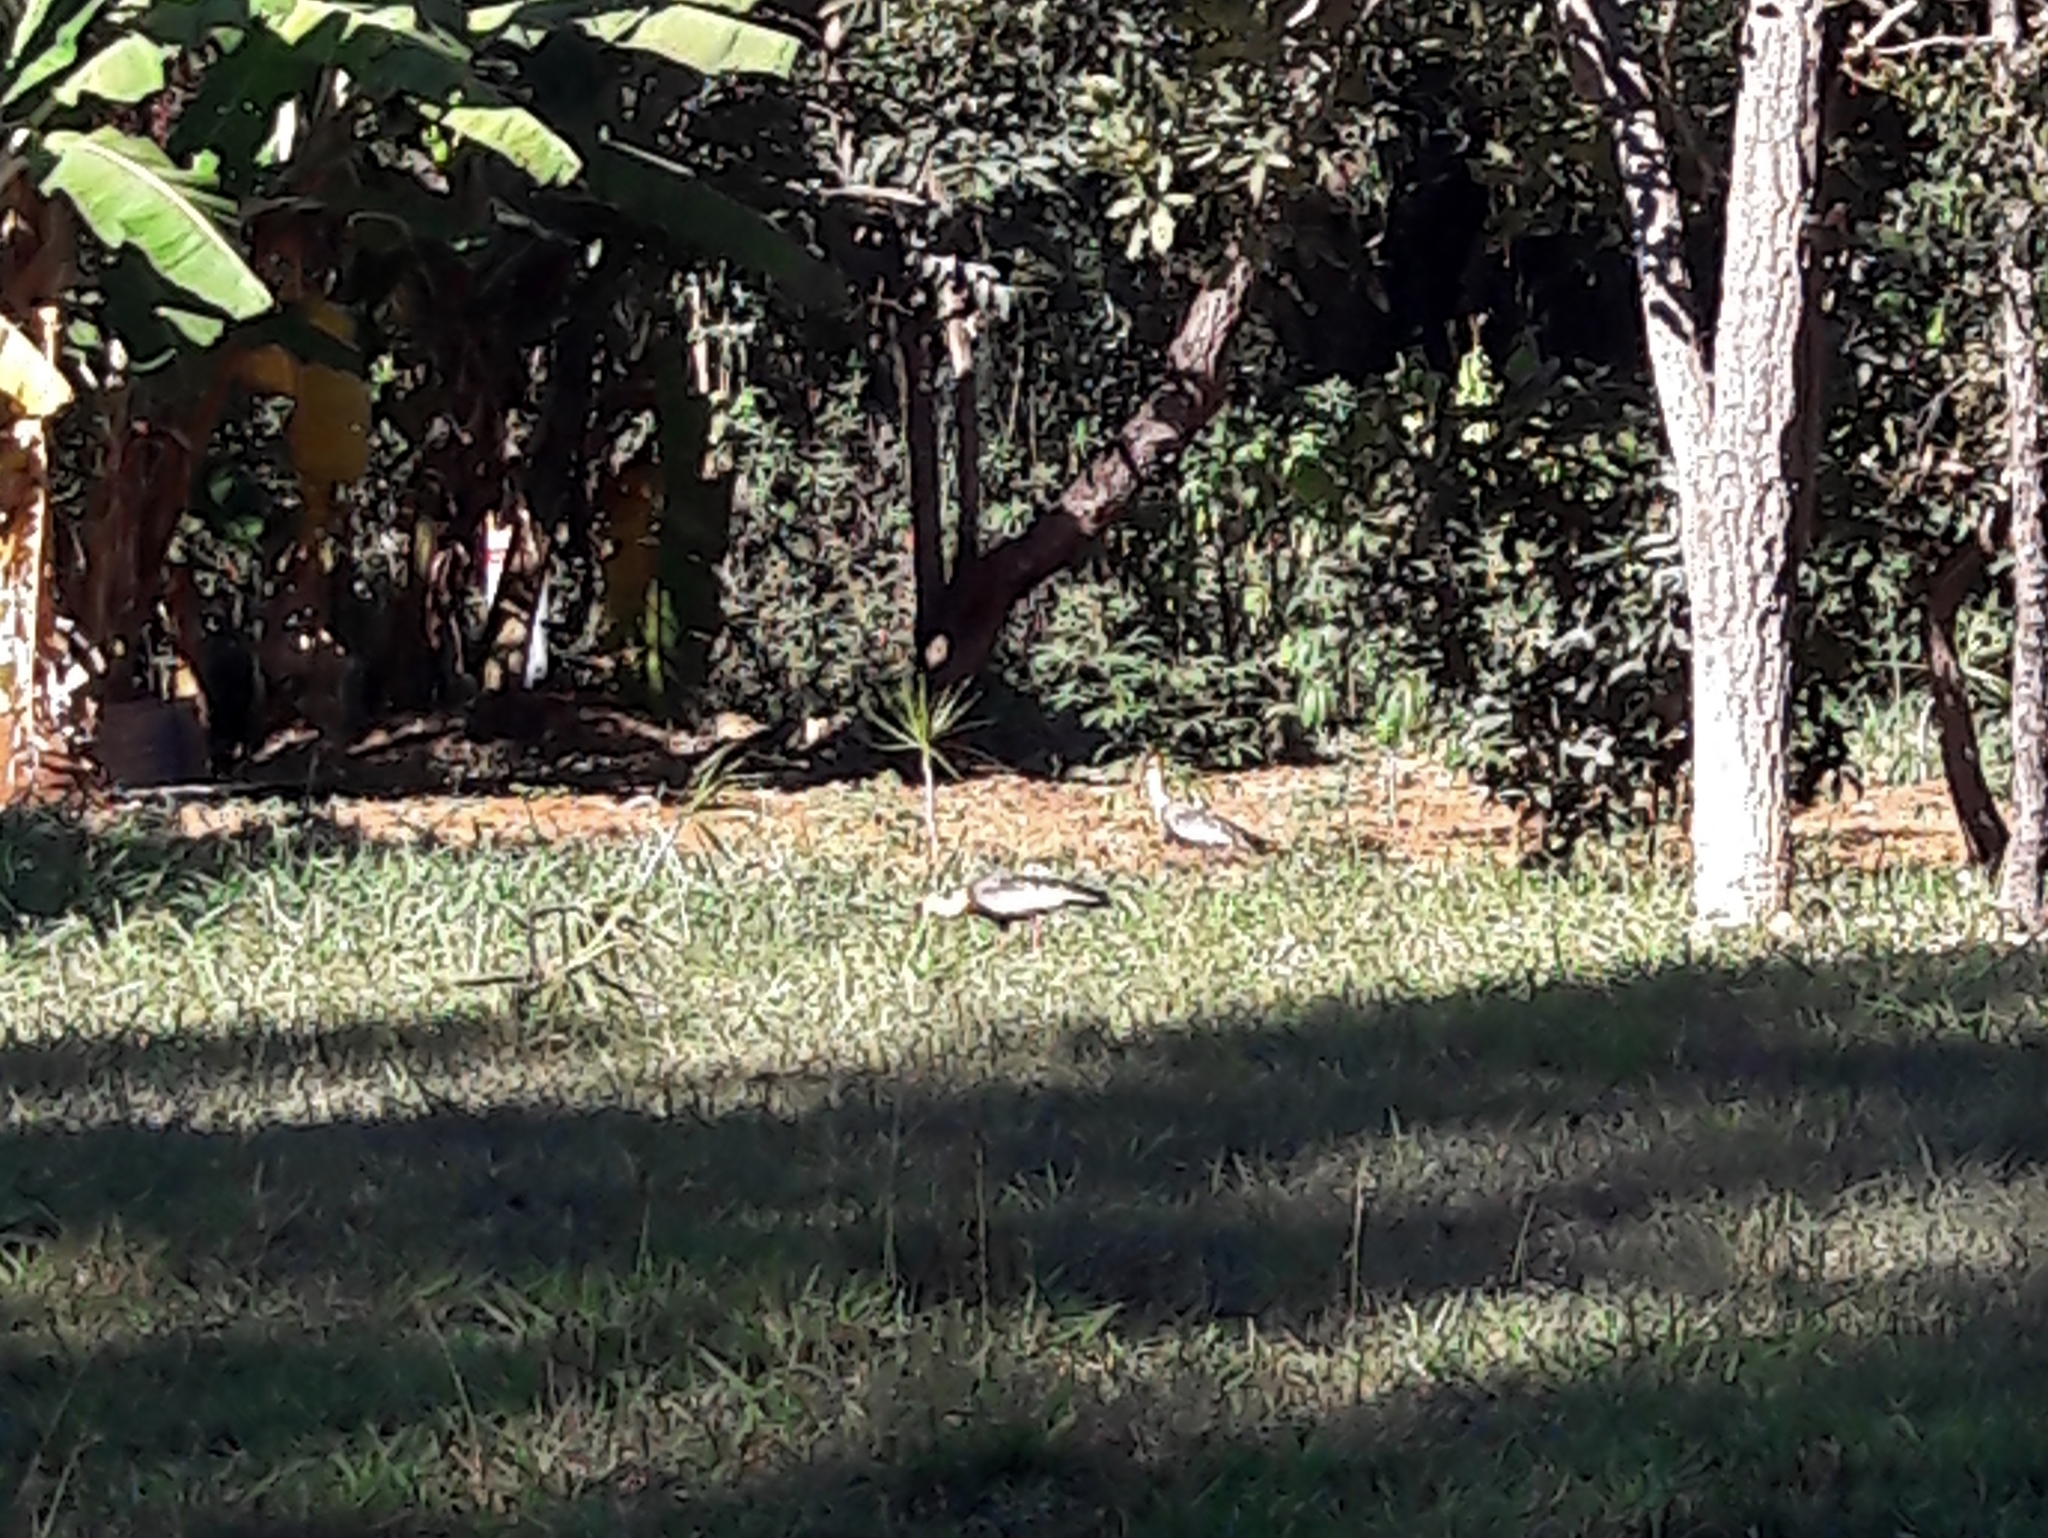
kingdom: Animalia
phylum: Chordata
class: Aves
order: Pelecaniformes
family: Threskiornithidae
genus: Theristicus
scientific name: Theristicus caudatus
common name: Buff-necked ibis
